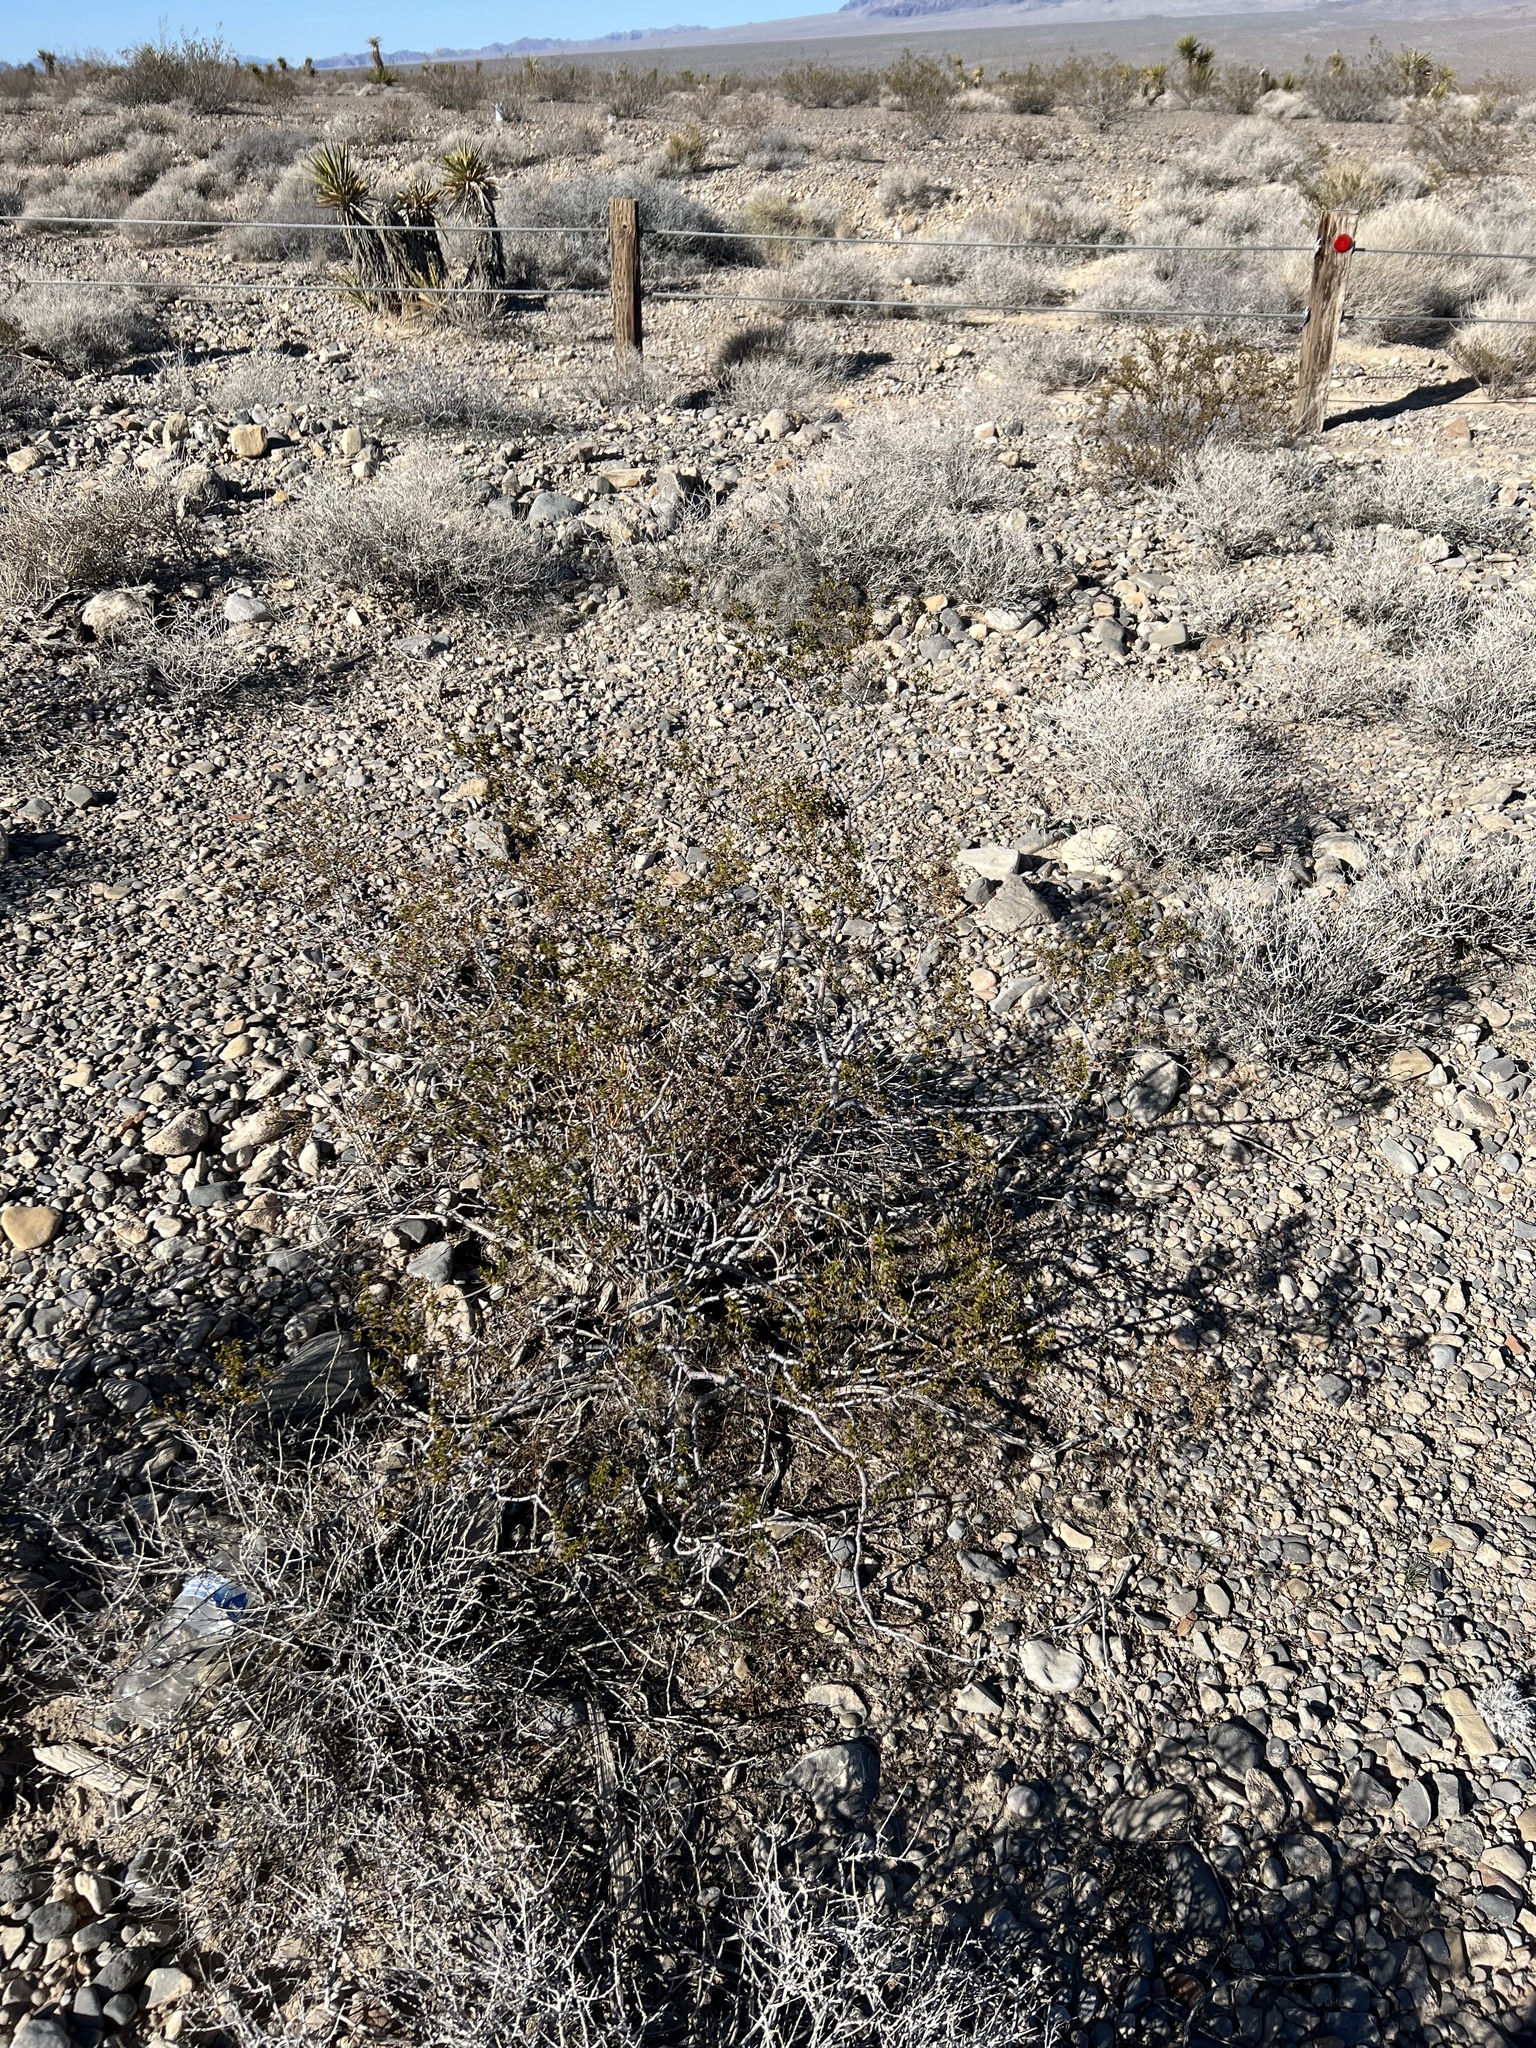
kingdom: Plantae
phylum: Tracheophyta
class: Magnoliopsida
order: Zygophyllales
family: Zygophyllaceae
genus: Larrea
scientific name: Larrea tridentata
